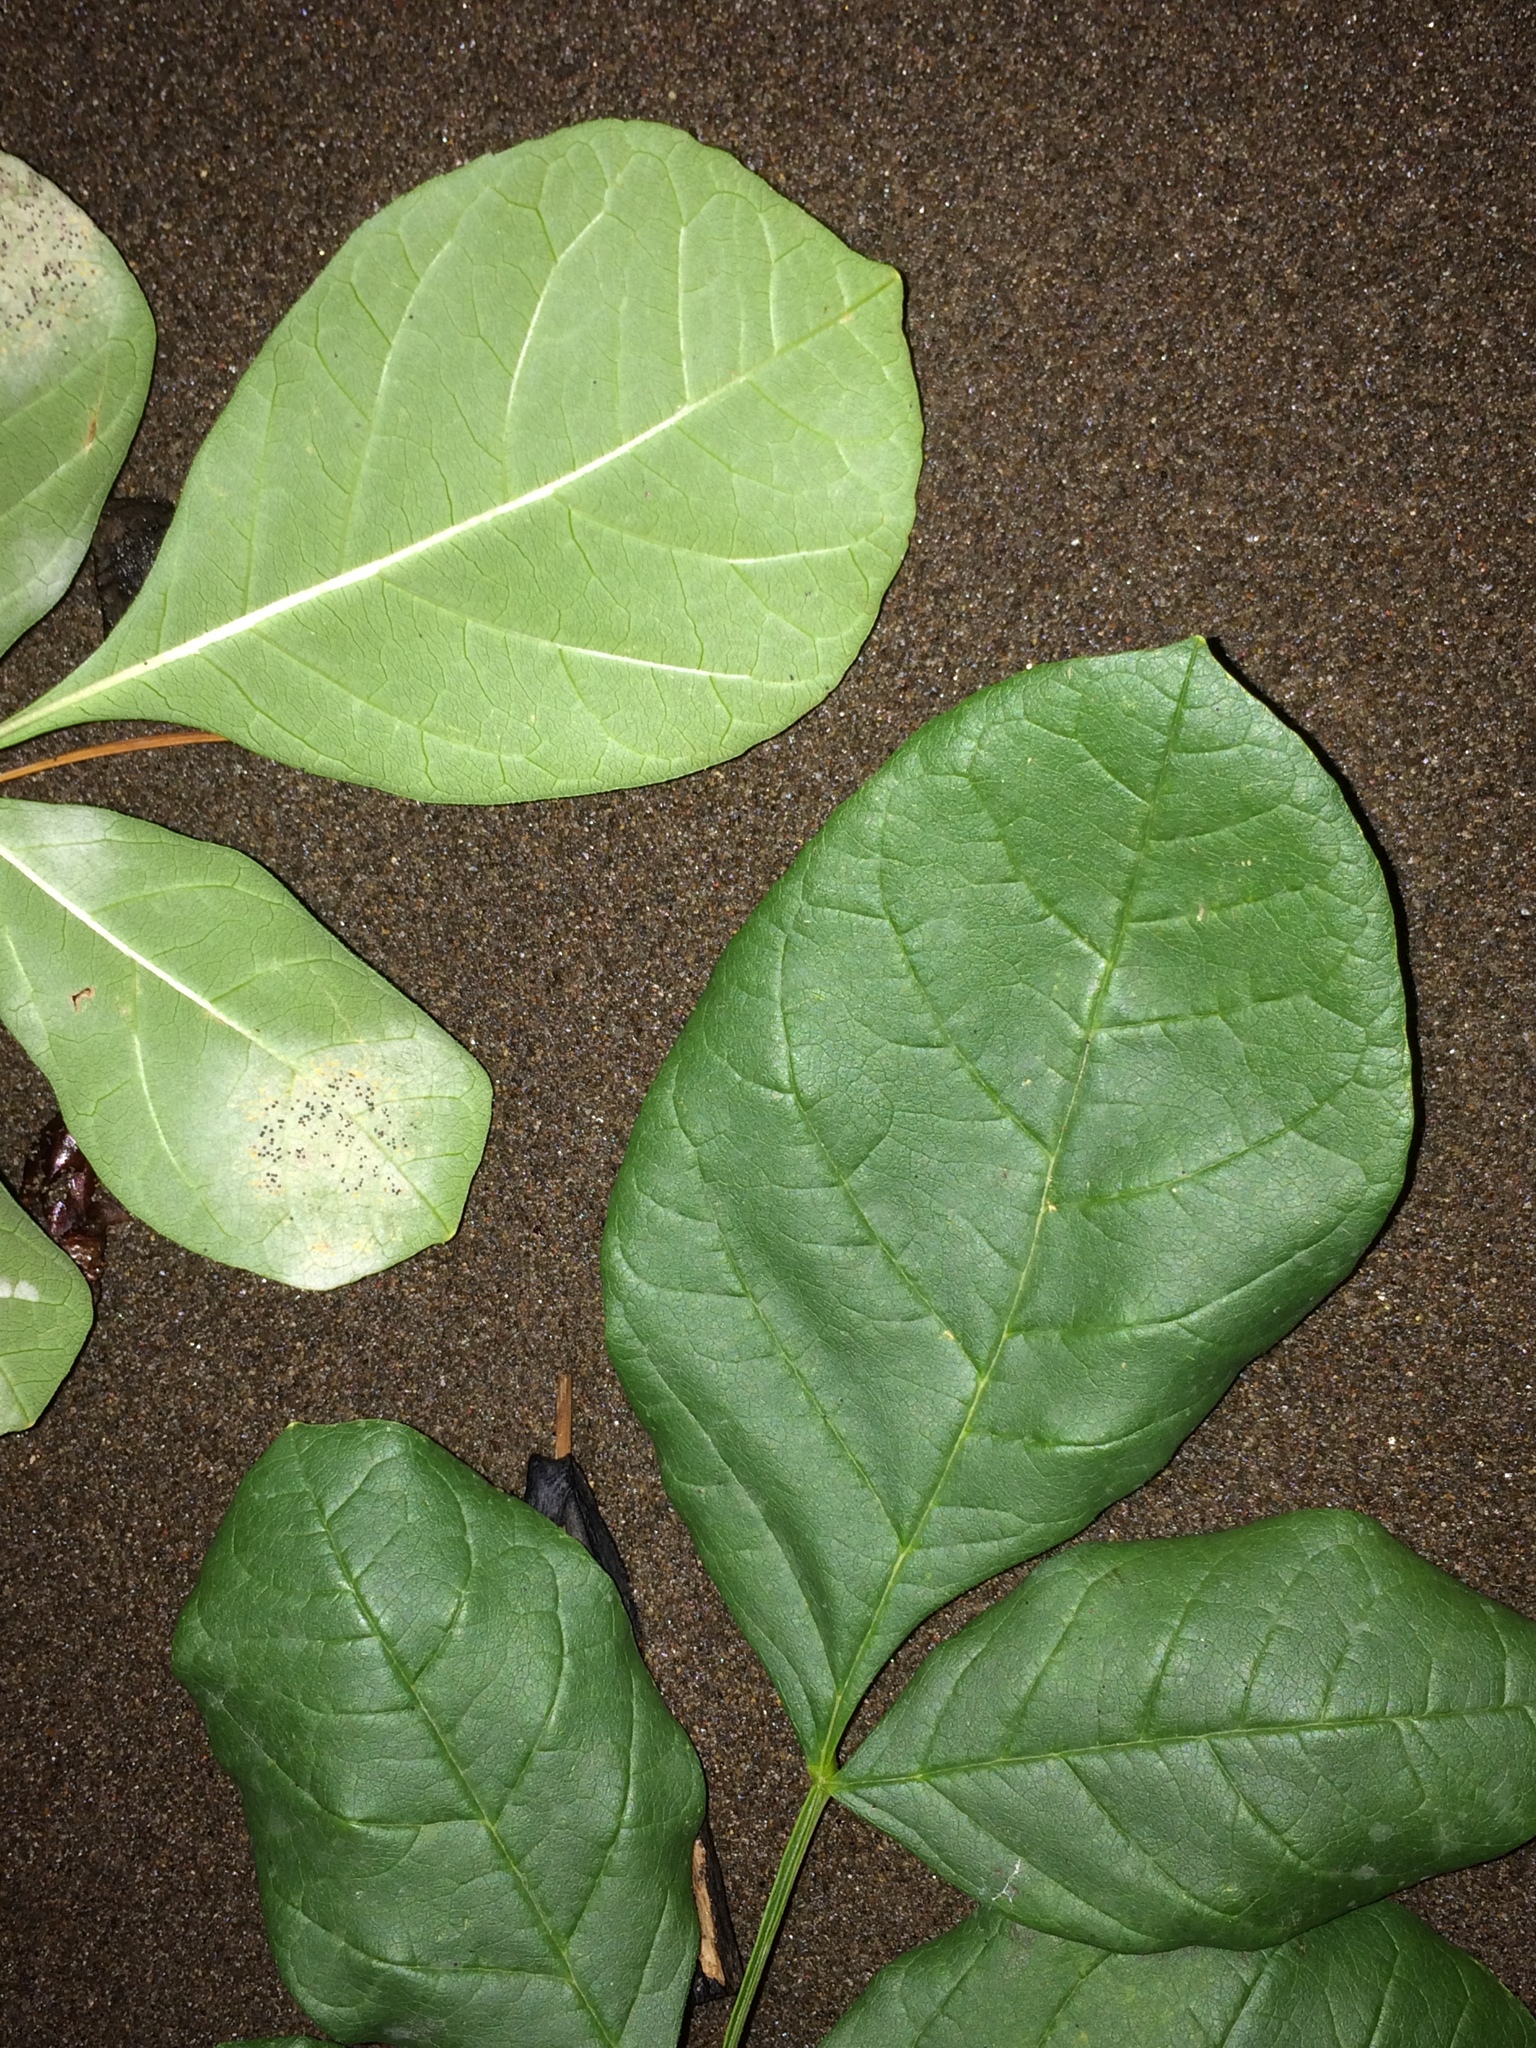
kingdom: Plantae
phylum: Tracheophyta
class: Magnoliopsida
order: Lamiales
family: Oleaceae
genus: Fraxinus
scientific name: Fraxinus latifolia
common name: Oregon ash
